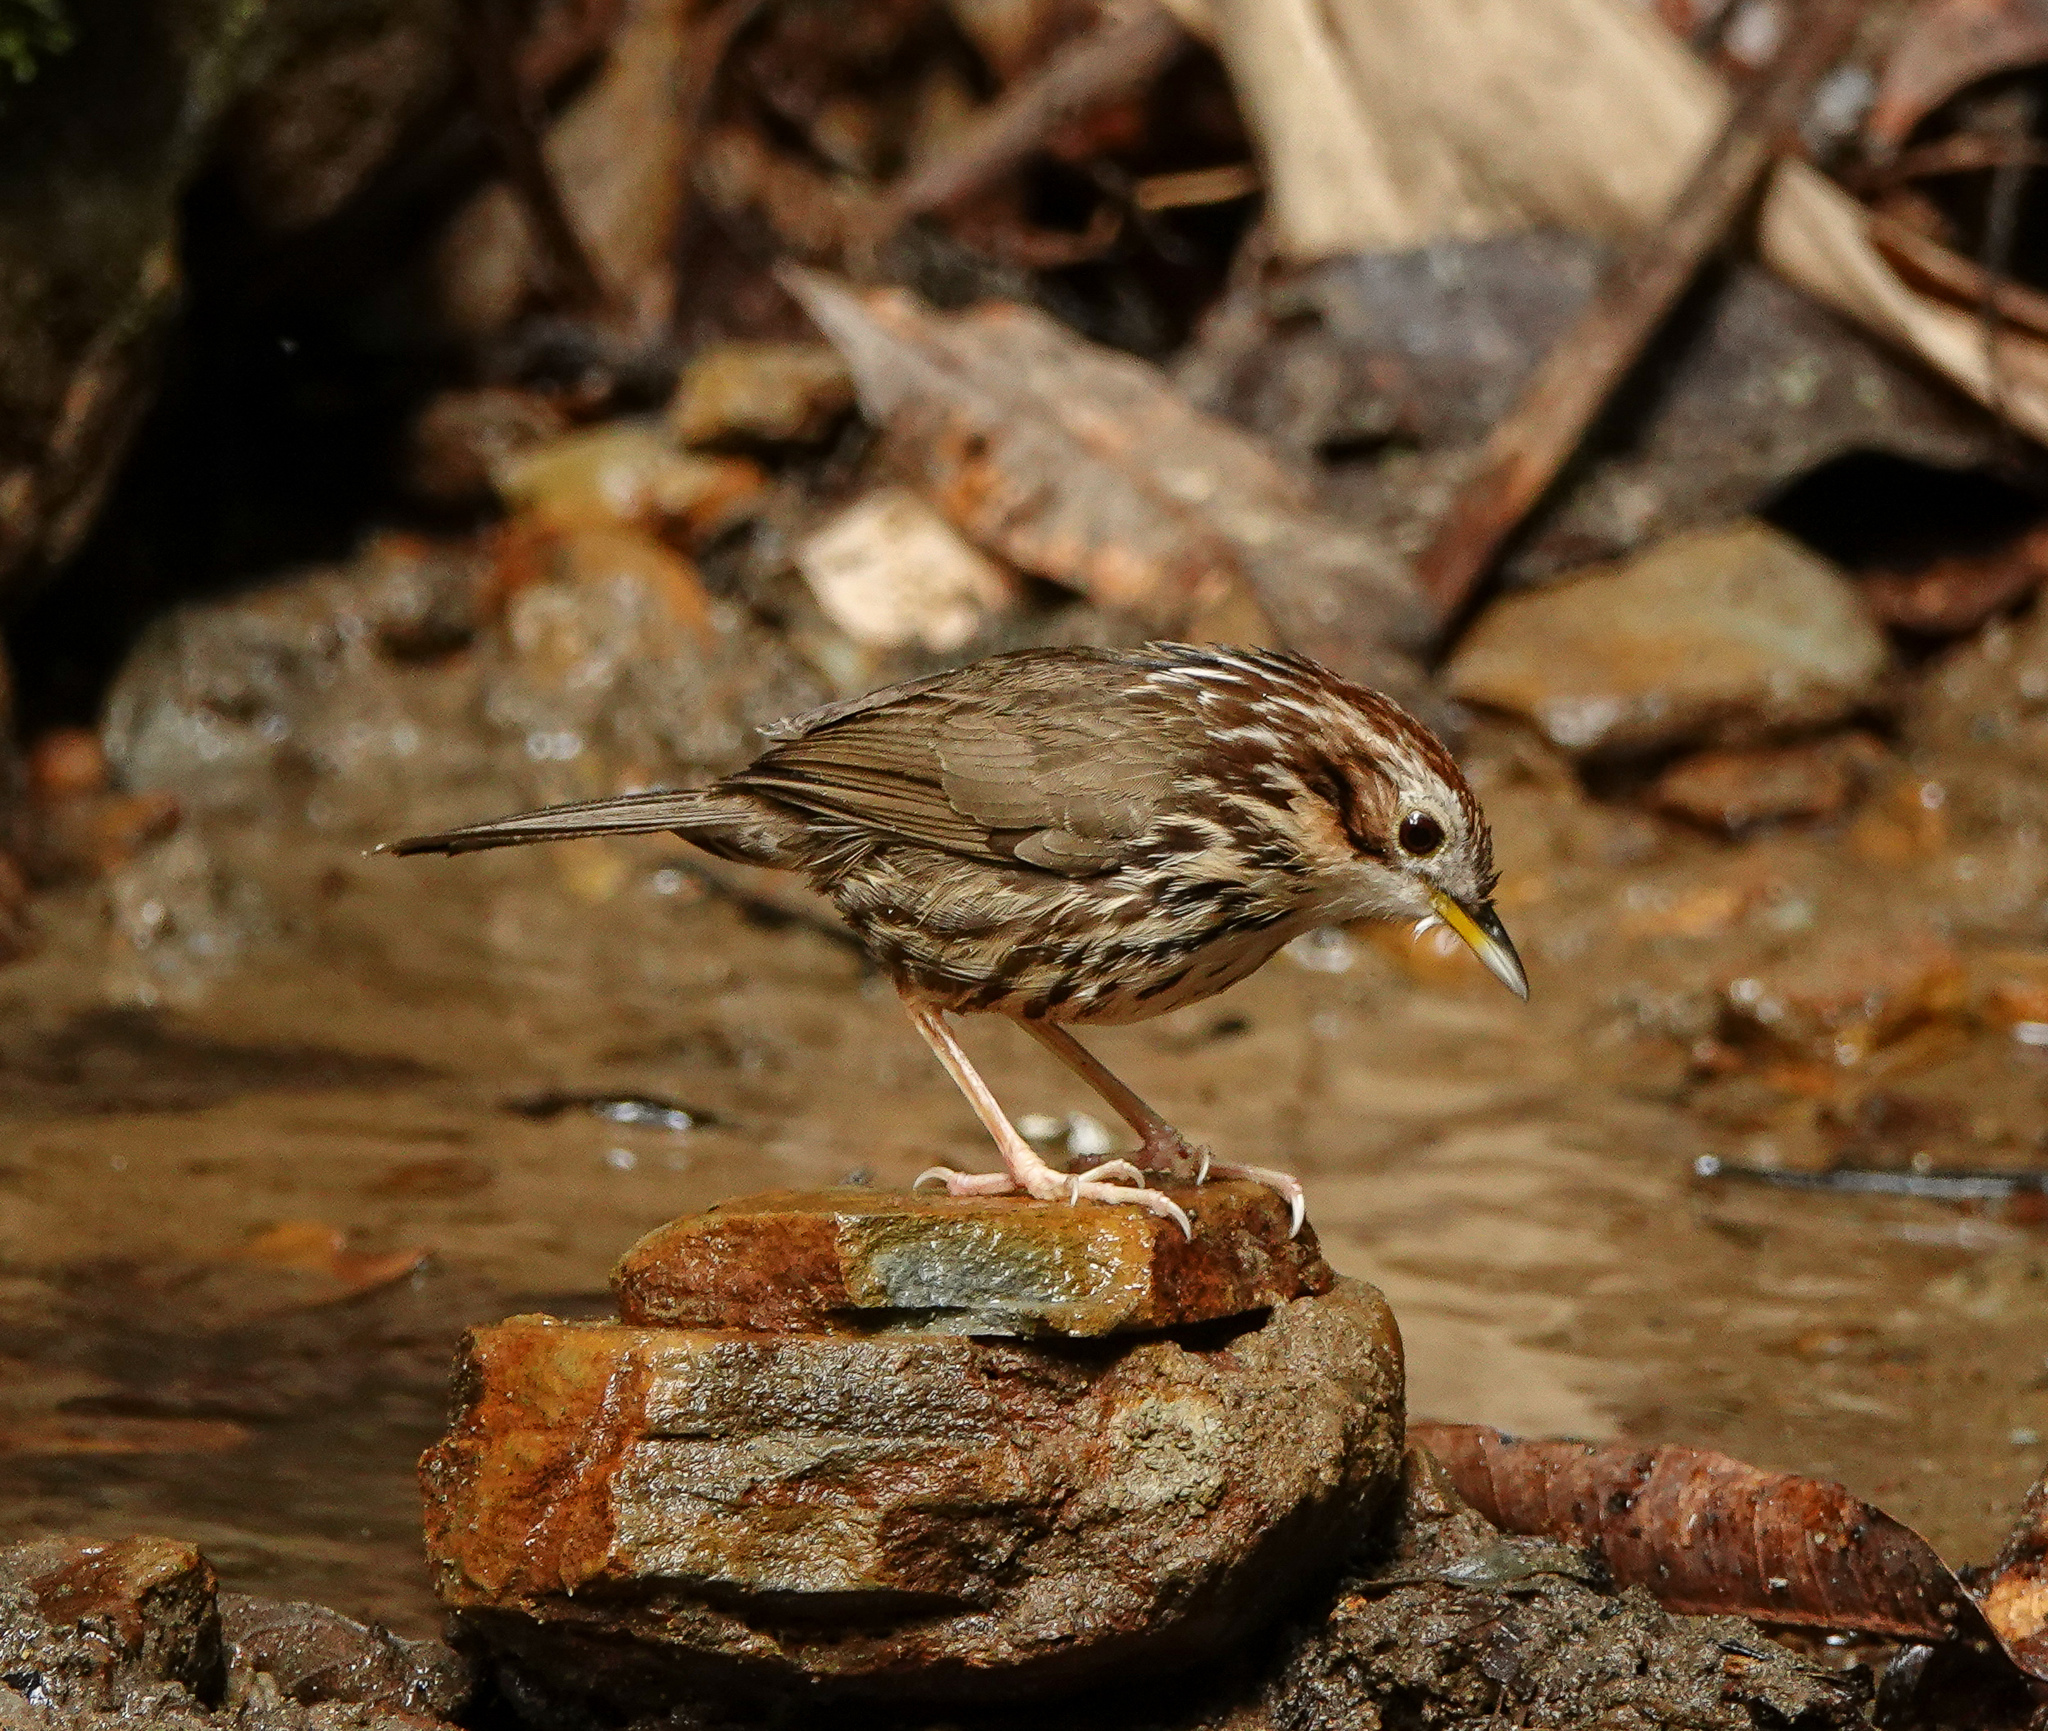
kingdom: Animalia
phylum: Chordata
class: Aves
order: Passeriformes
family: Pellorneidae
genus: Pellorneum
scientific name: Pellorneum ruficeps
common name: Puff-throated babbler
